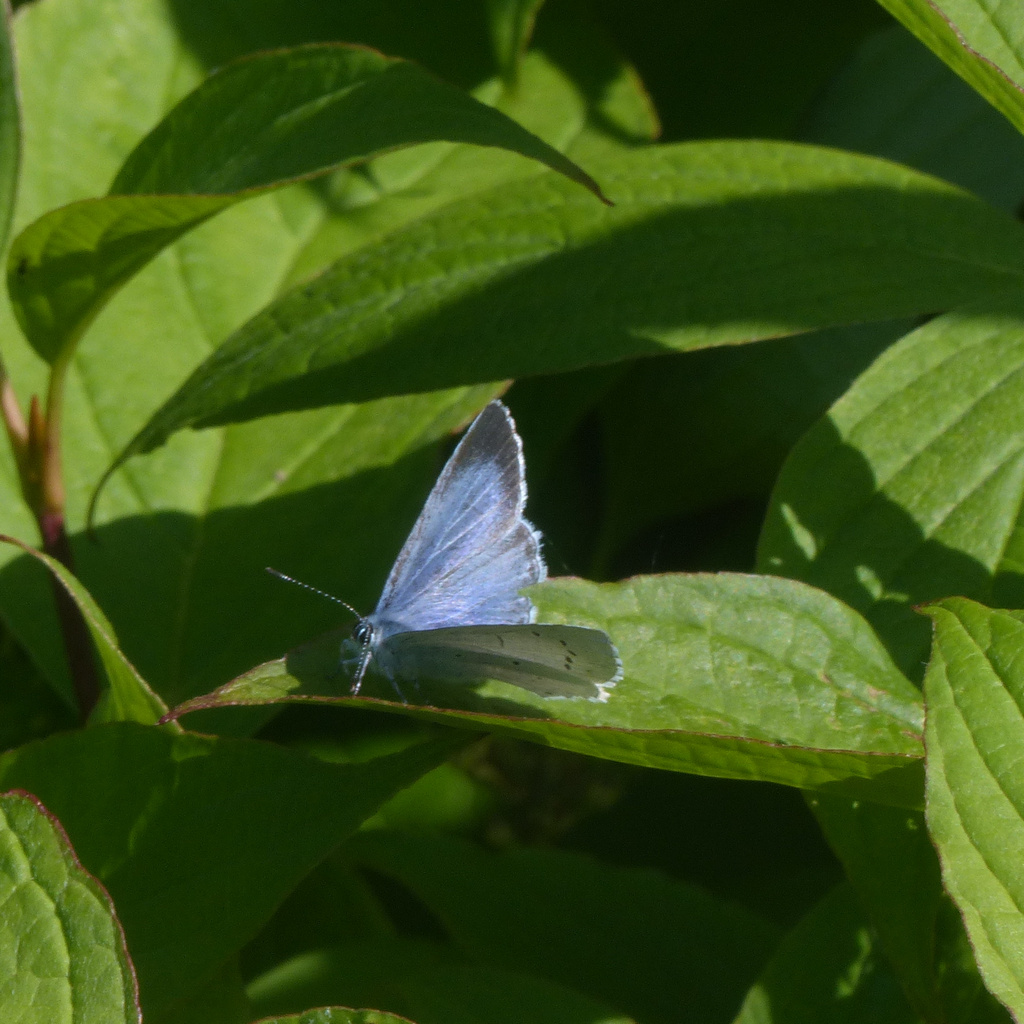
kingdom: Animalia
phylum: Arthropoda
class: Insecta
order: Lepidoptera
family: Lycaenidae
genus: Celastrina
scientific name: Celastrina argiolus
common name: Holly blue
